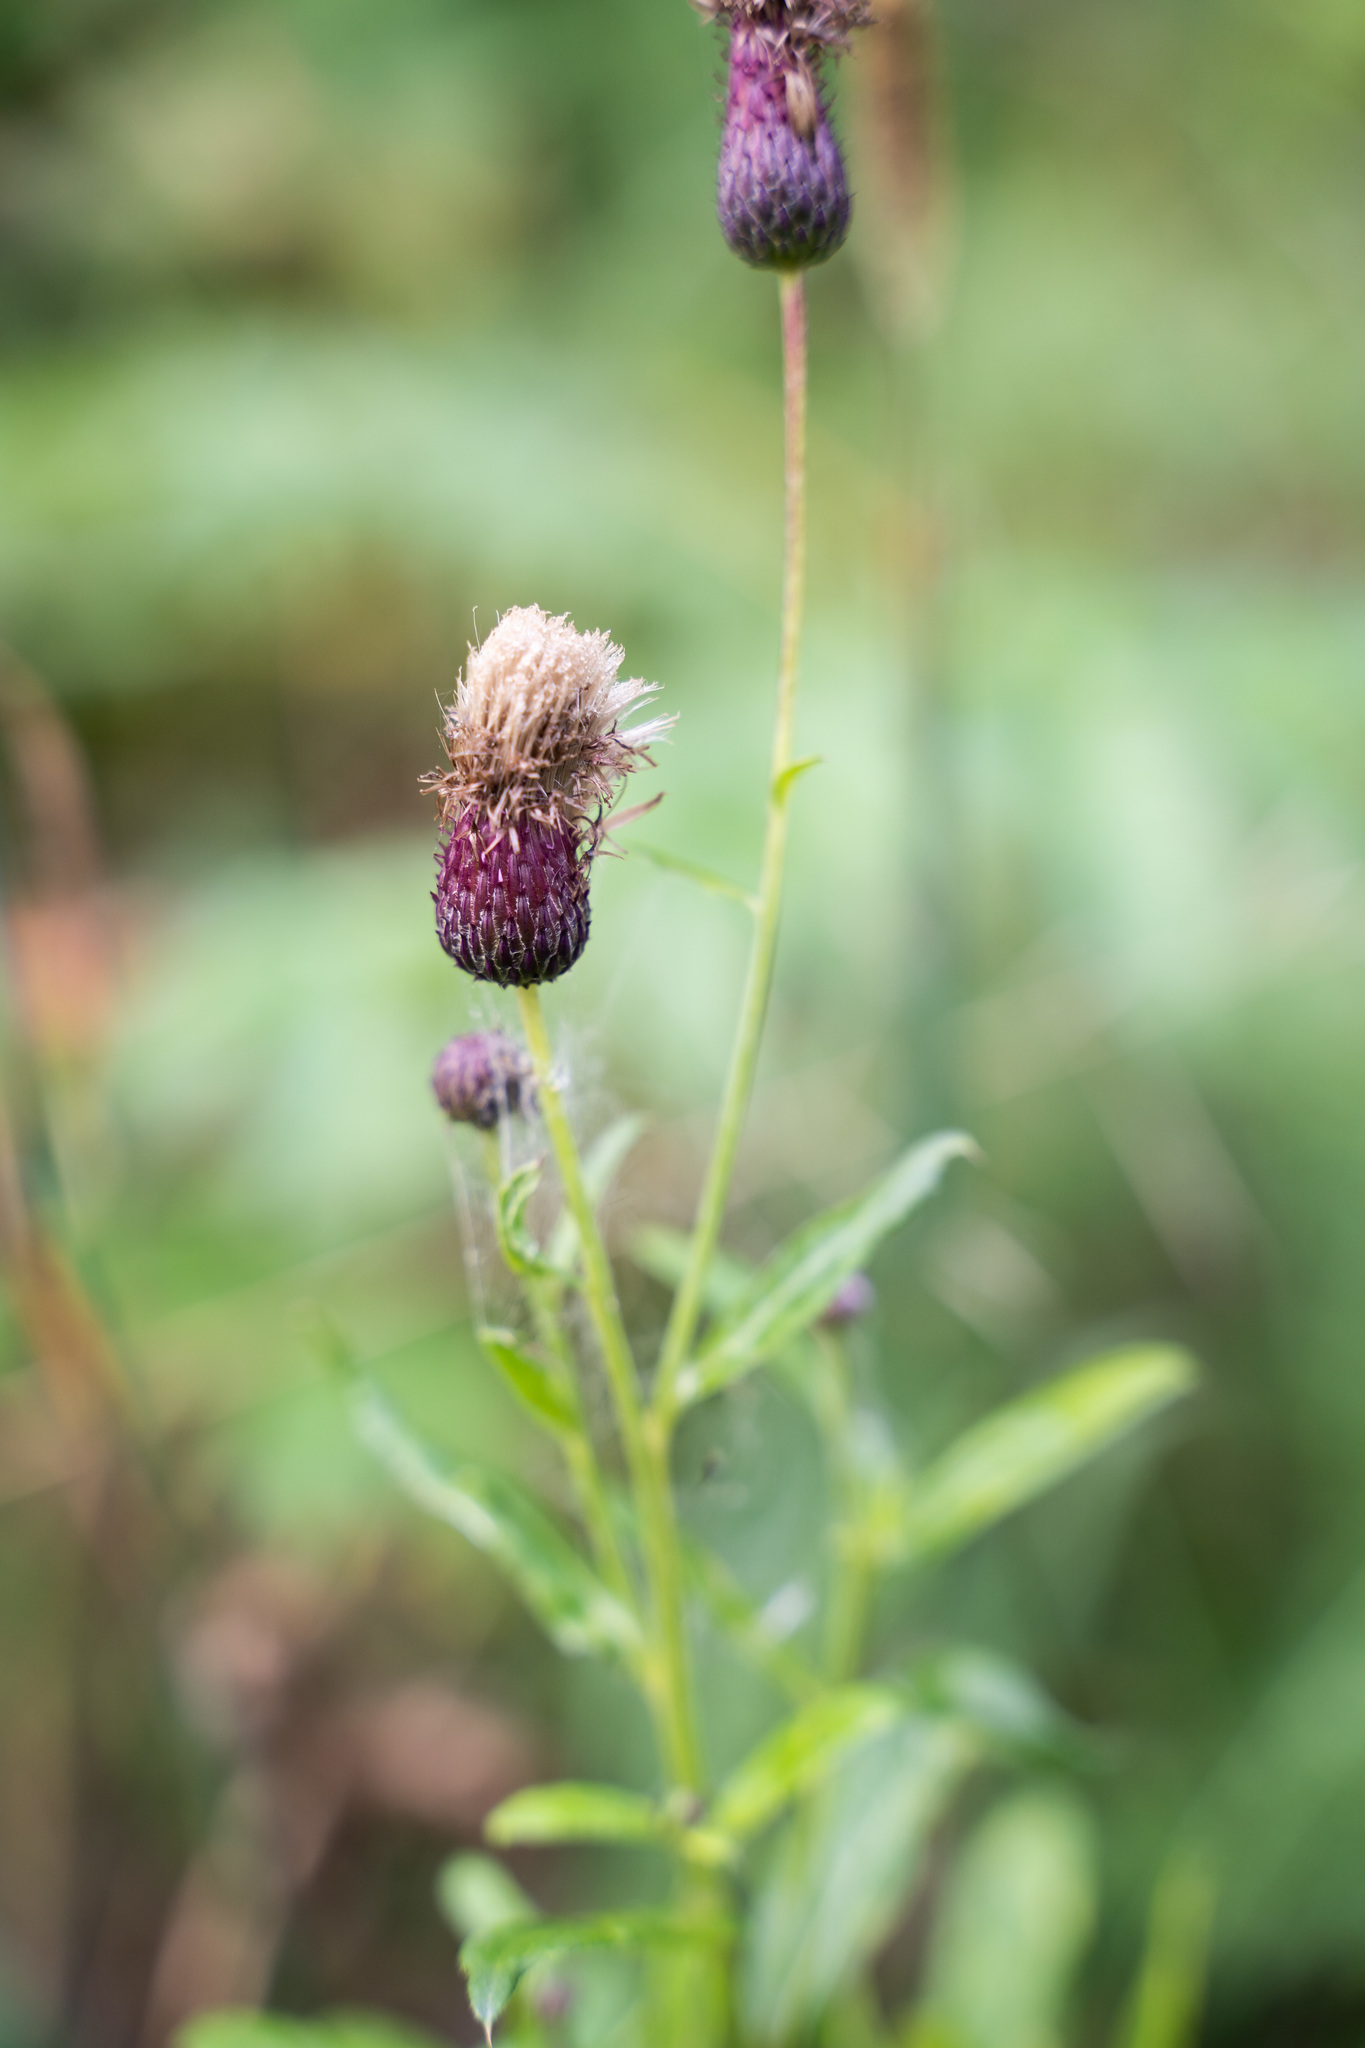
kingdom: Plantae
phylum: Tracheophyta
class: Magnoliopsida
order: Asterales
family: Asteraceae
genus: Cirsium
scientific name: Cirsium arvense
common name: Creeping thistle
